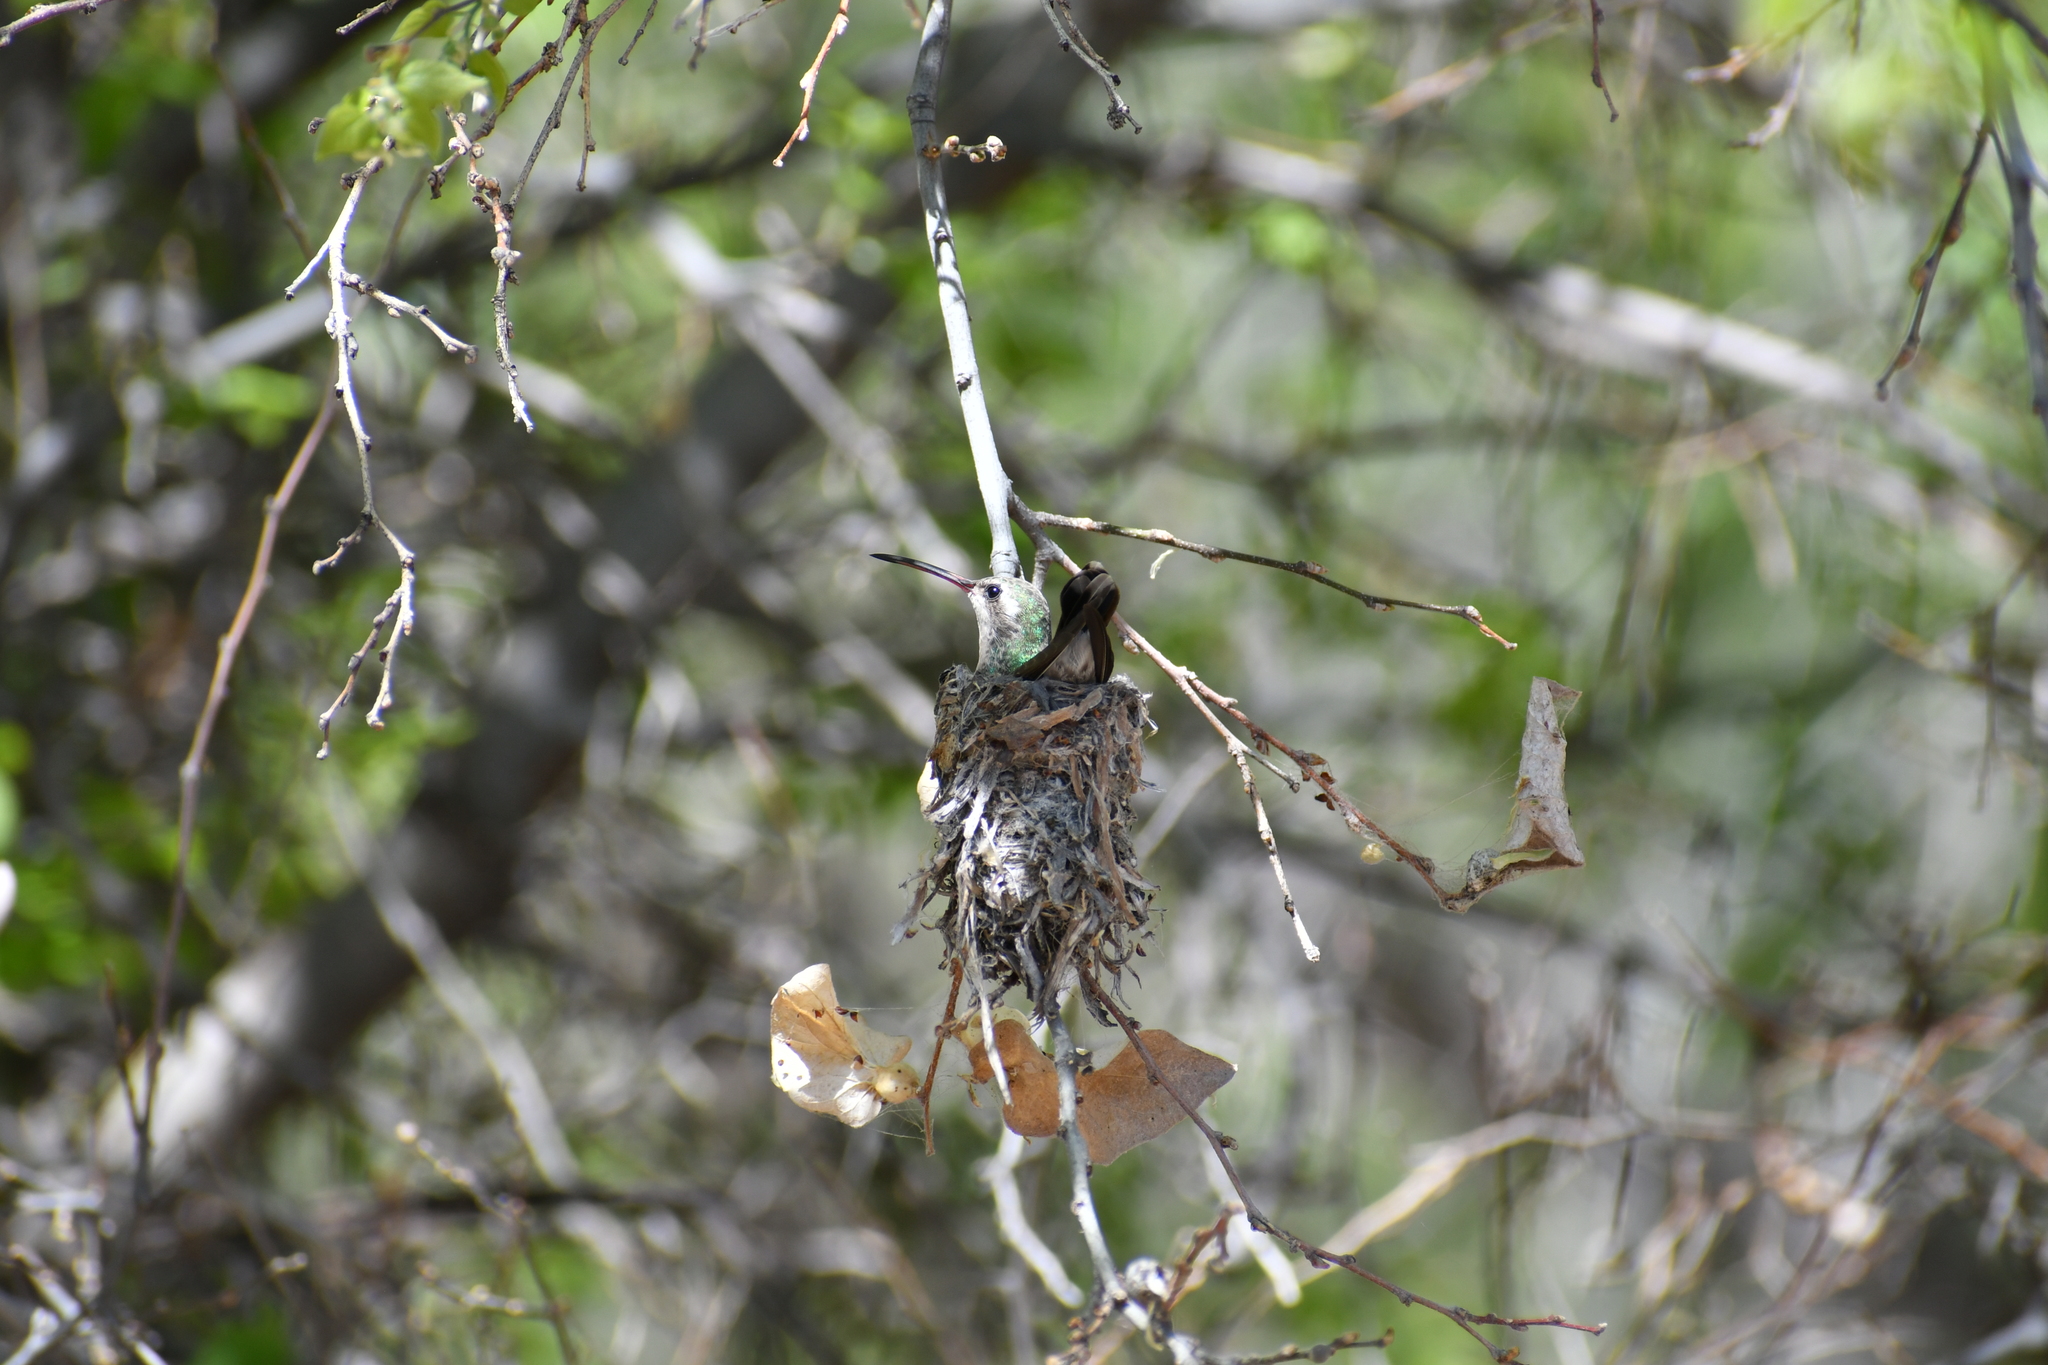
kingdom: Animalia
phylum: Chordata
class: Aves
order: Apodiformes
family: Trochilidae
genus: Cynanthus
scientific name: Cynanthus latirostris
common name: Broad-billed hummingbird
